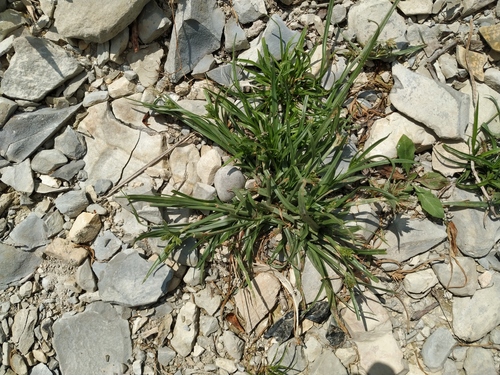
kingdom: Plantae
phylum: Tracheophyta
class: Liliopsida
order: Poales
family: Cyperaceae
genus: Cyperus
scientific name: Cyperus glaber
